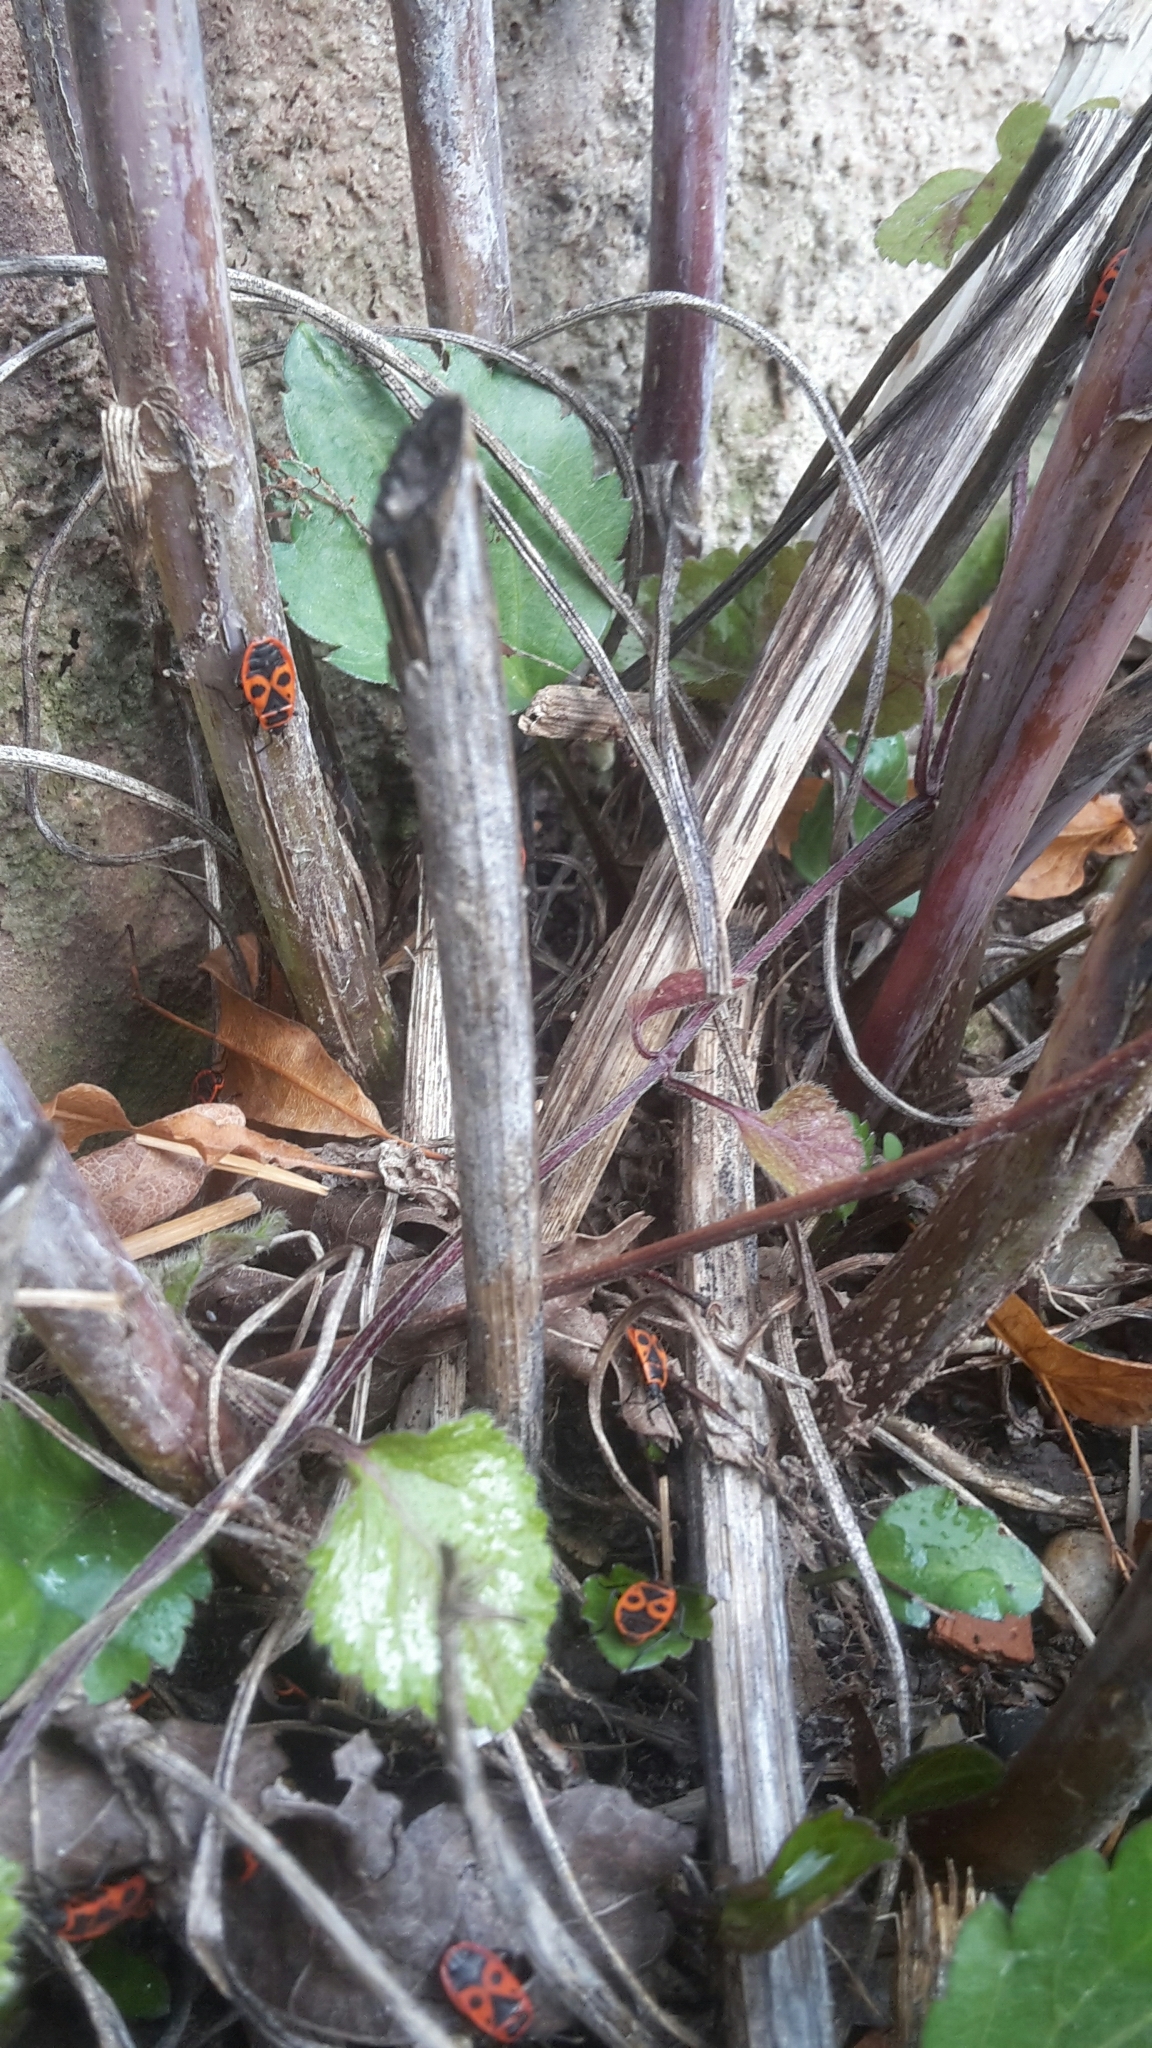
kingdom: Animalia
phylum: Arthropoda
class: Insecta
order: Hemiptera
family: Pyrrhocoridae
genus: Pyrrhocoris
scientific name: Pyrrhocoris apterus
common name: Firebug
